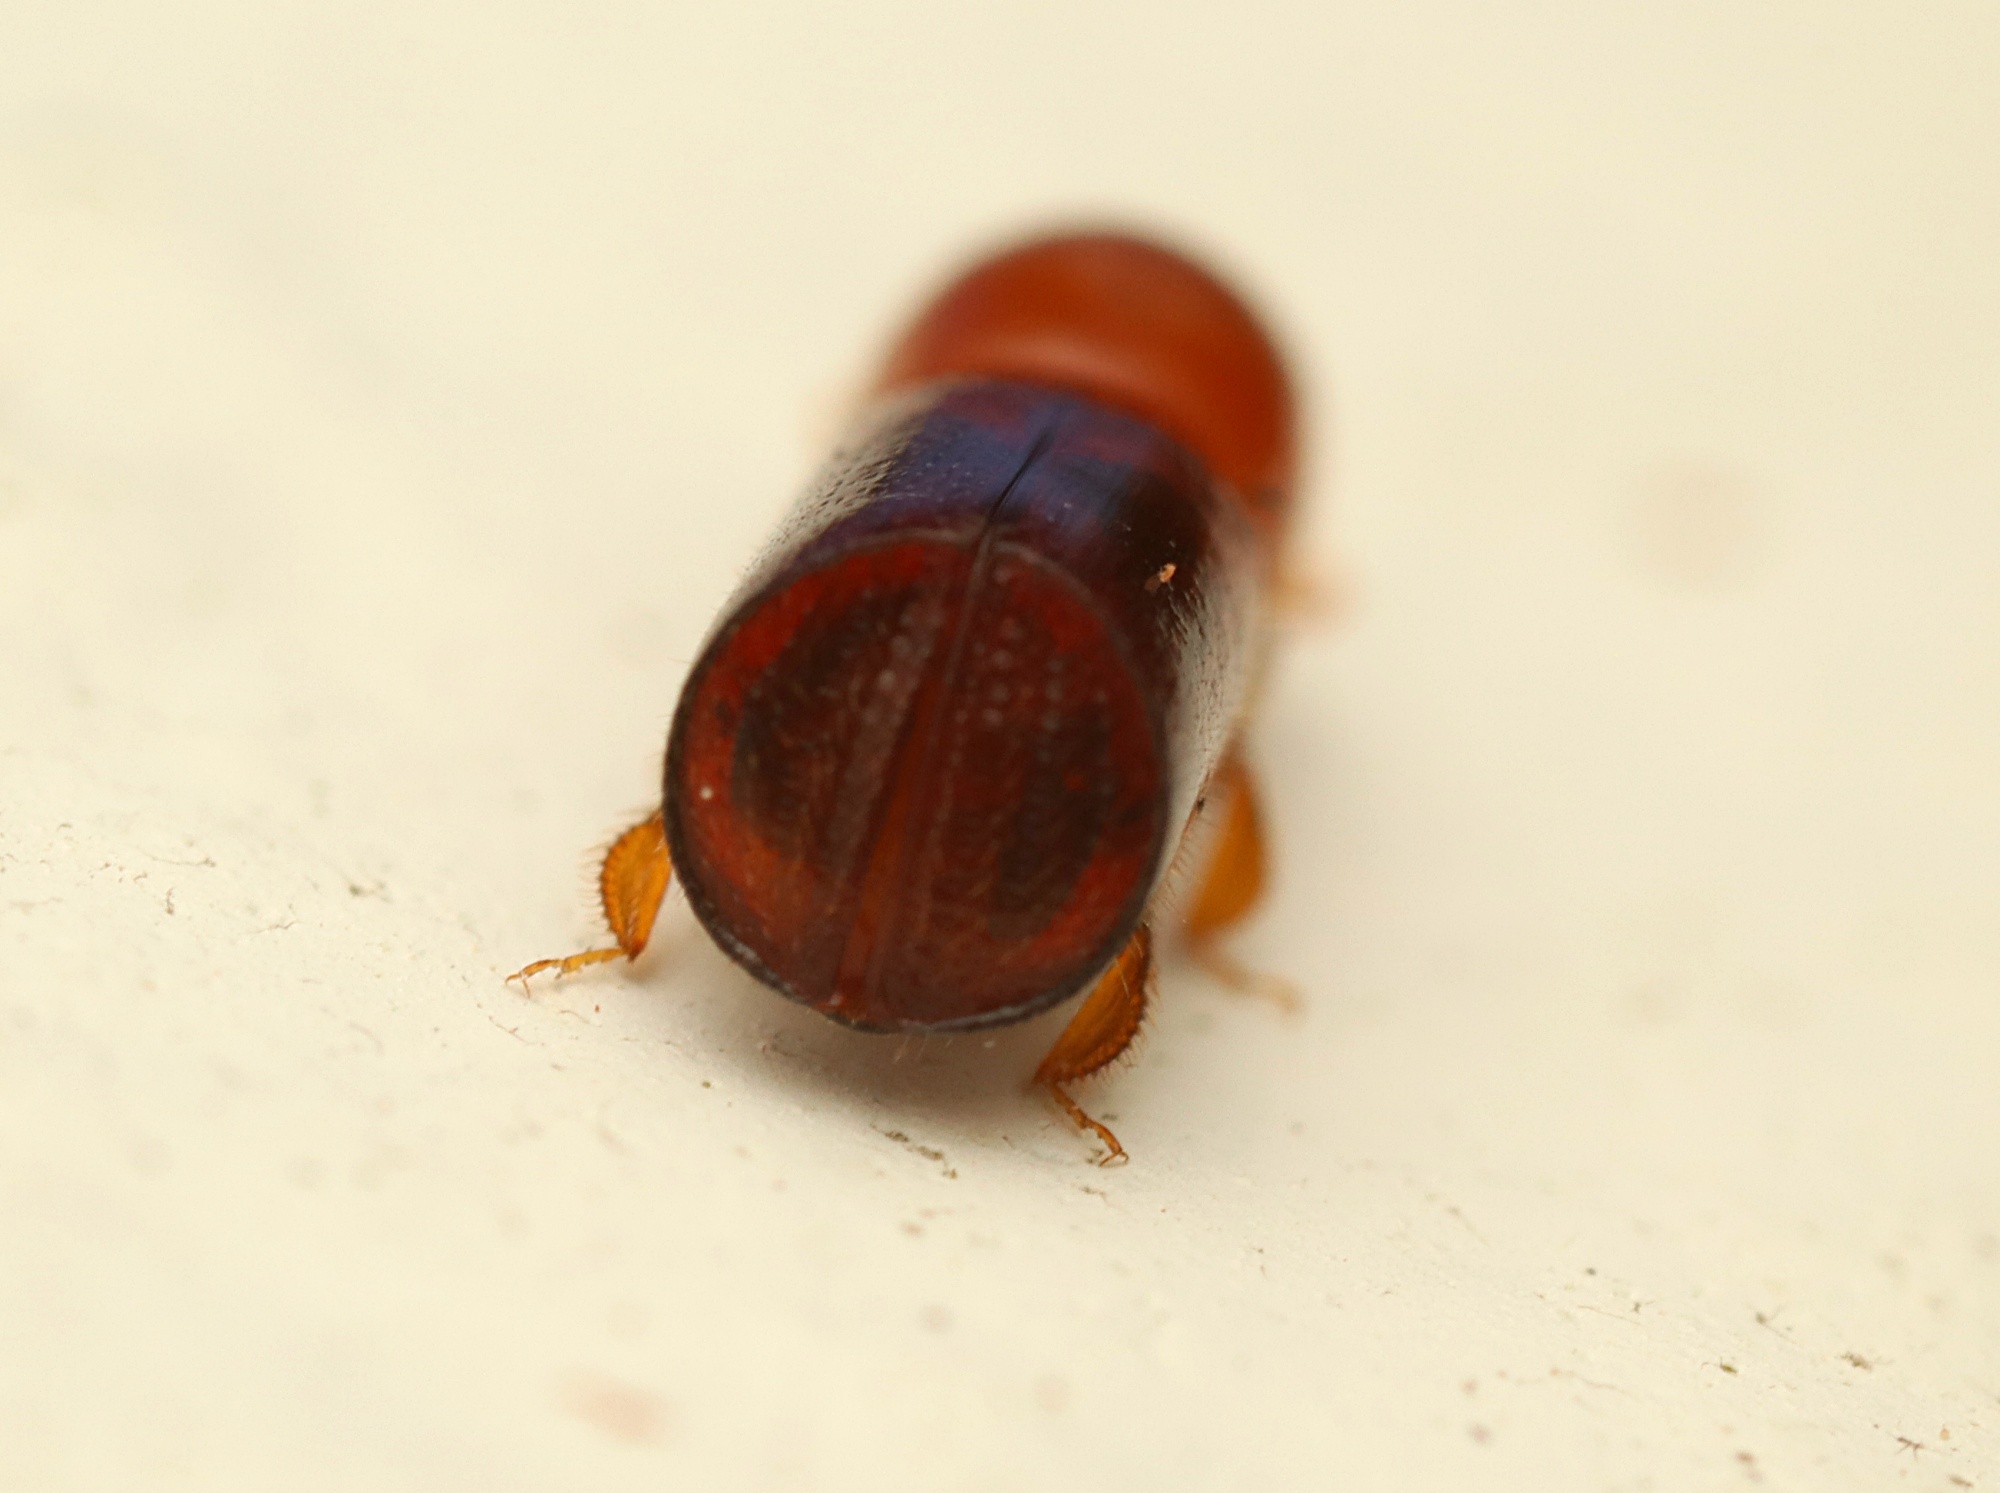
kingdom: Animalia
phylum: Arthropoda
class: Insecta
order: Coleoptera
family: Curculionidae
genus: Amasa
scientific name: Amasa truncatus
